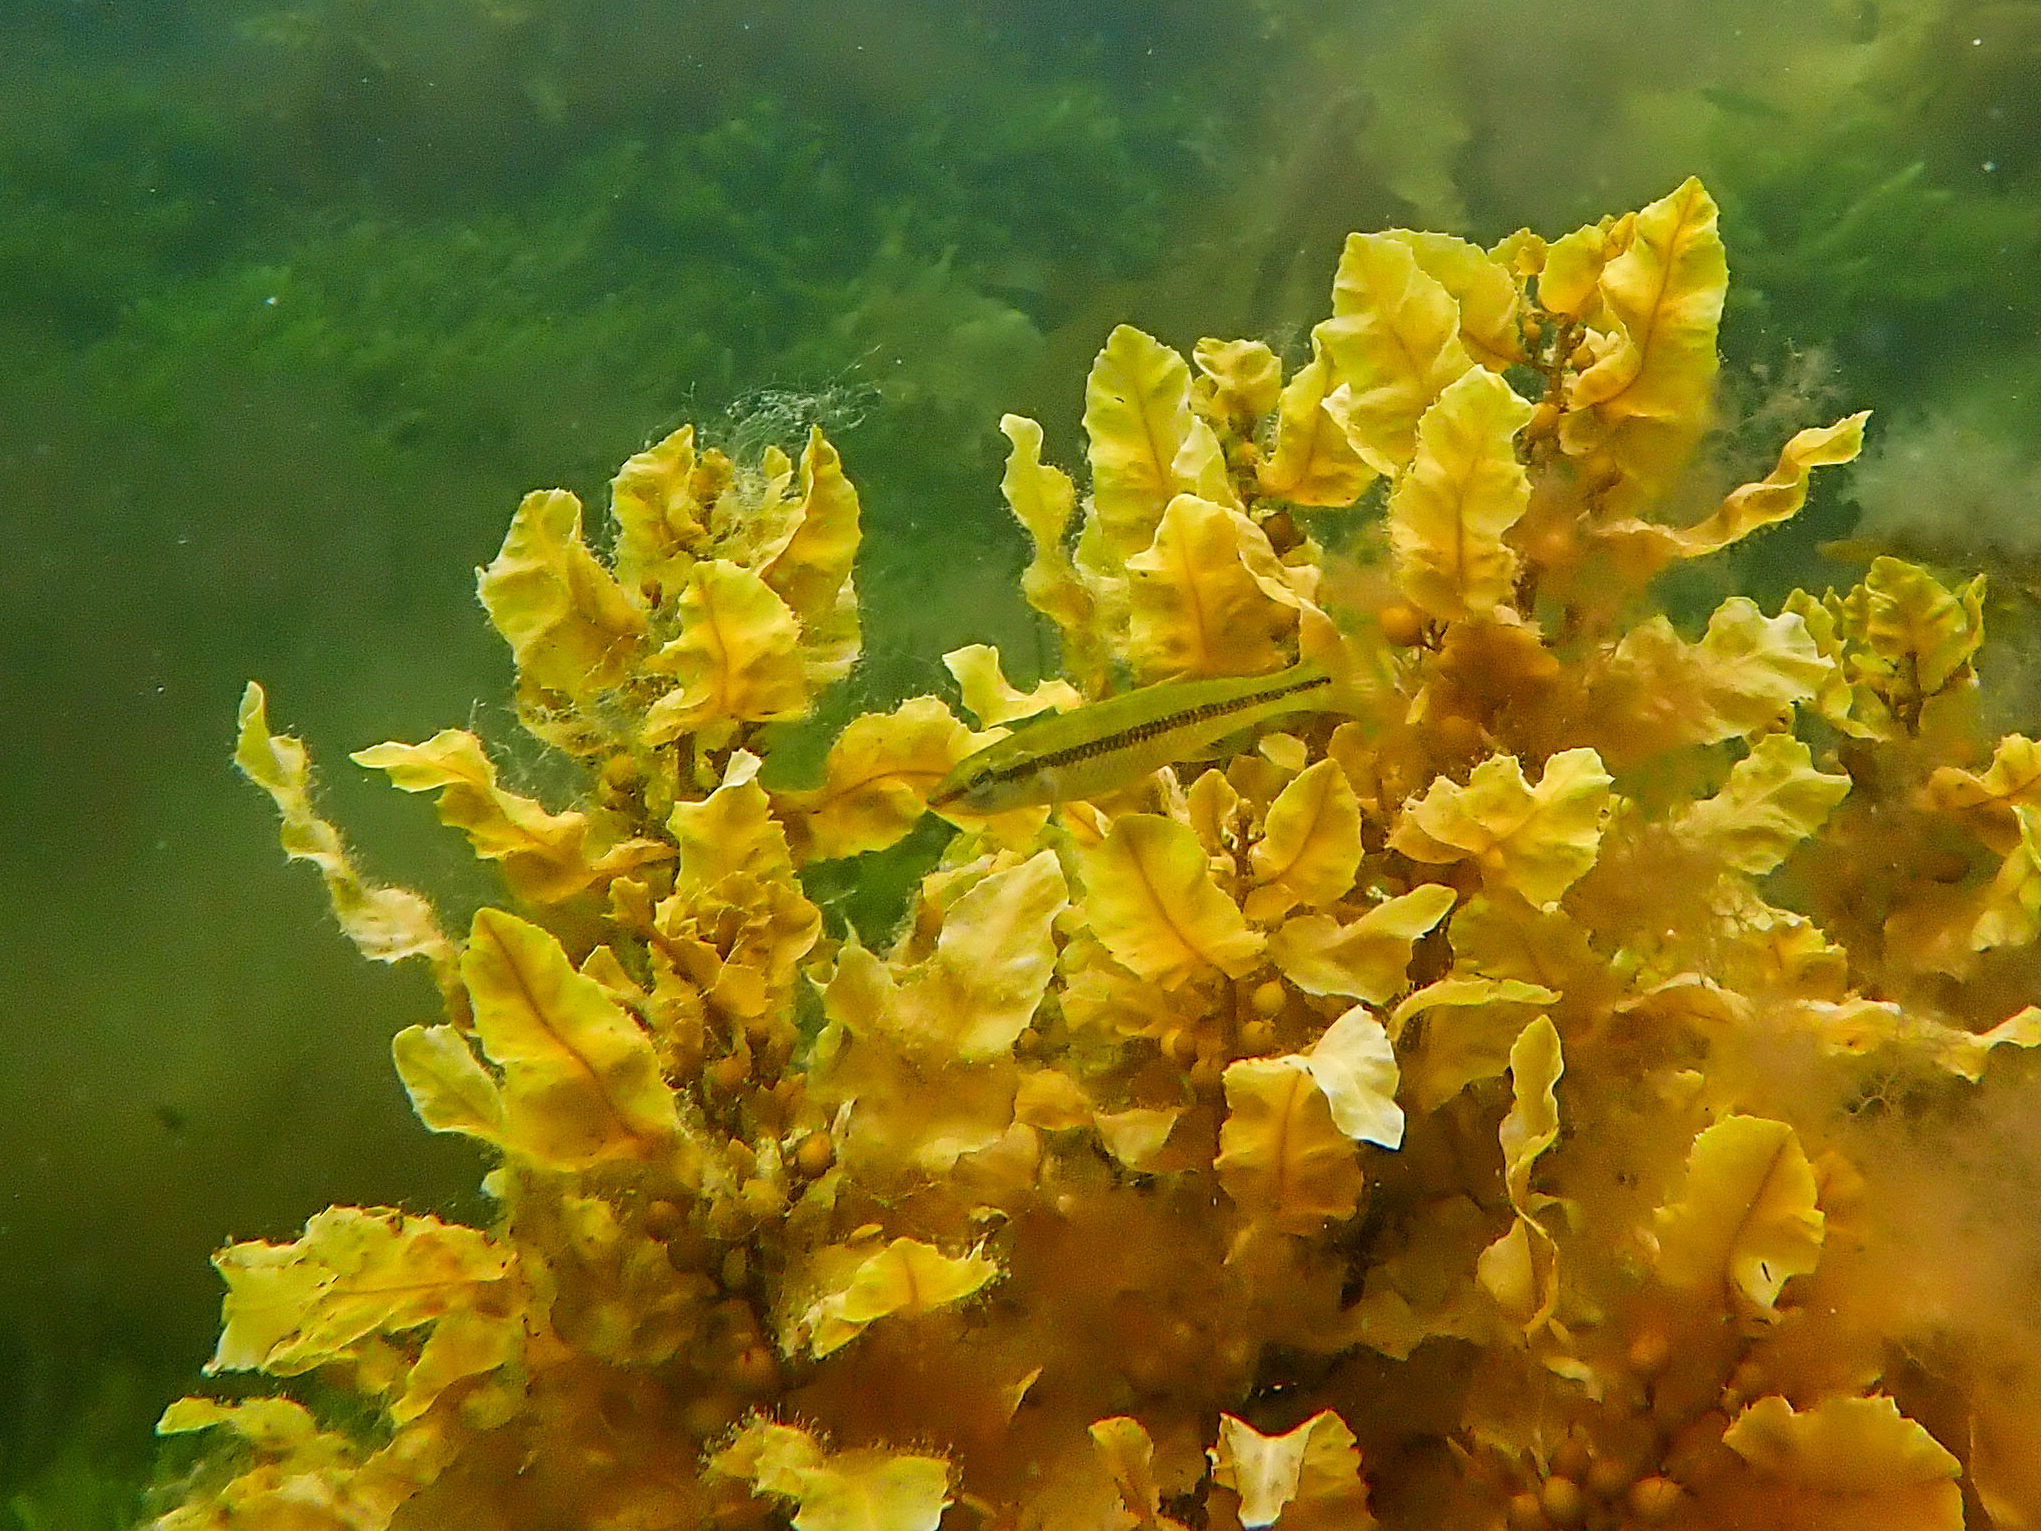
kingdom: Animalia
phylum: Chordata
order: Perciformes
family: Odacidae
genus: Neoodax
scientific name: Neoodax balteatus
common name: Ground mullet
